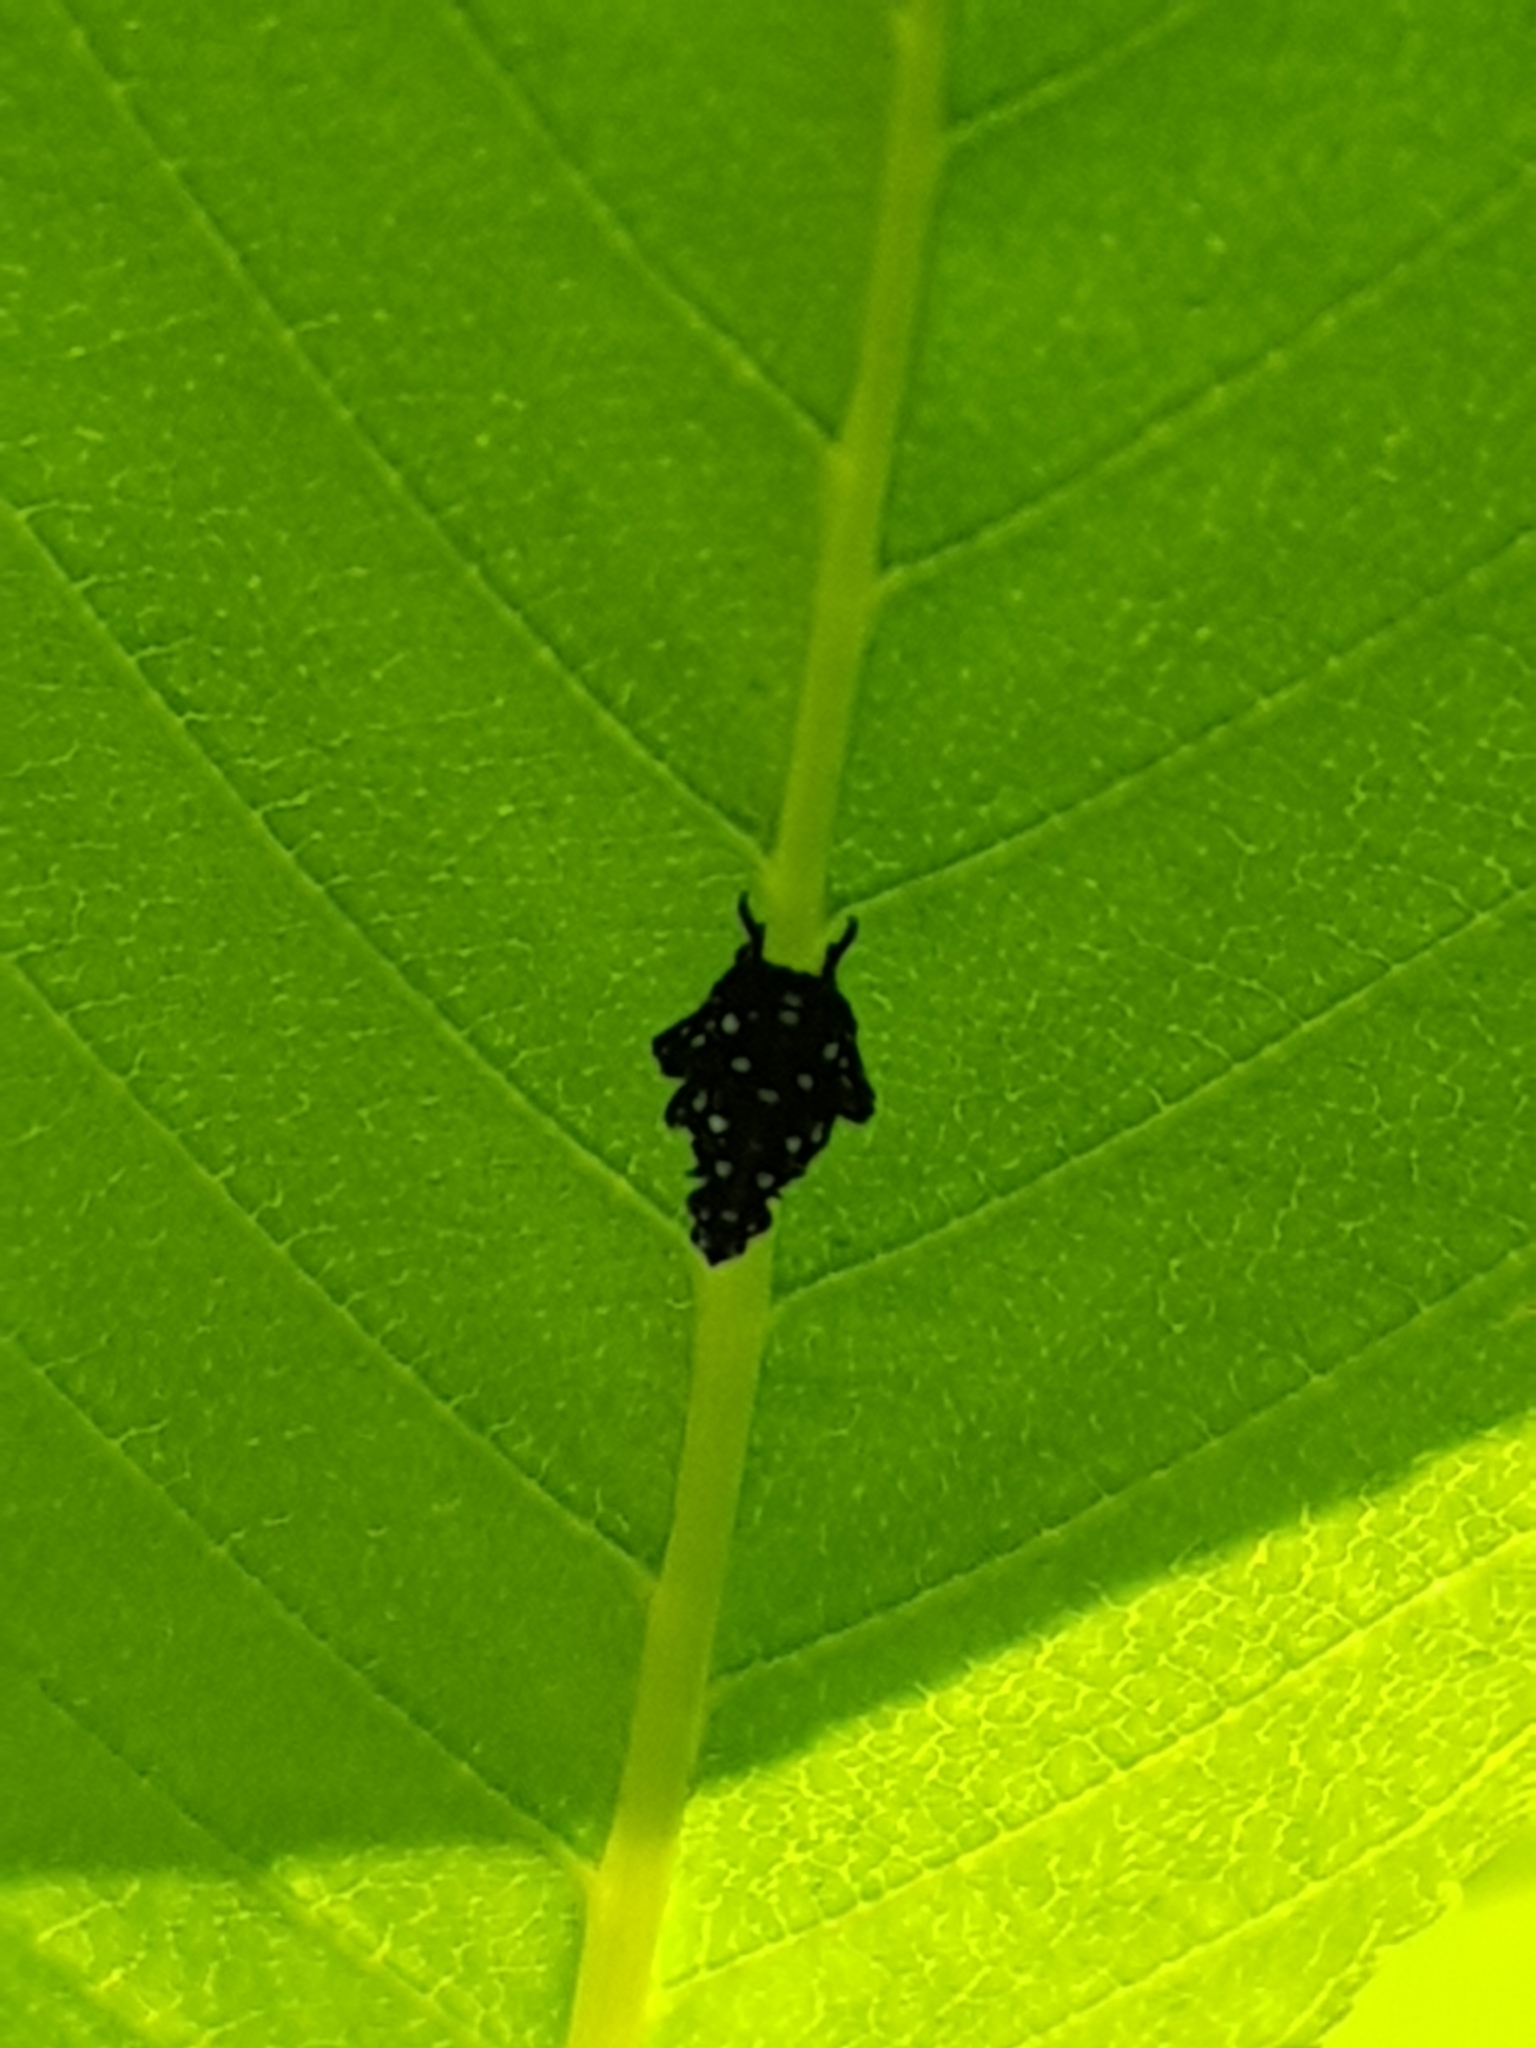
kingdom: Animalia
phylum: Arthropoda
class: Insecta
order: Hemiptera
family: Fulgoridae
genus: Lycorma
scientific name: Lycorma delicatula
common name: Spotted lanternfly
